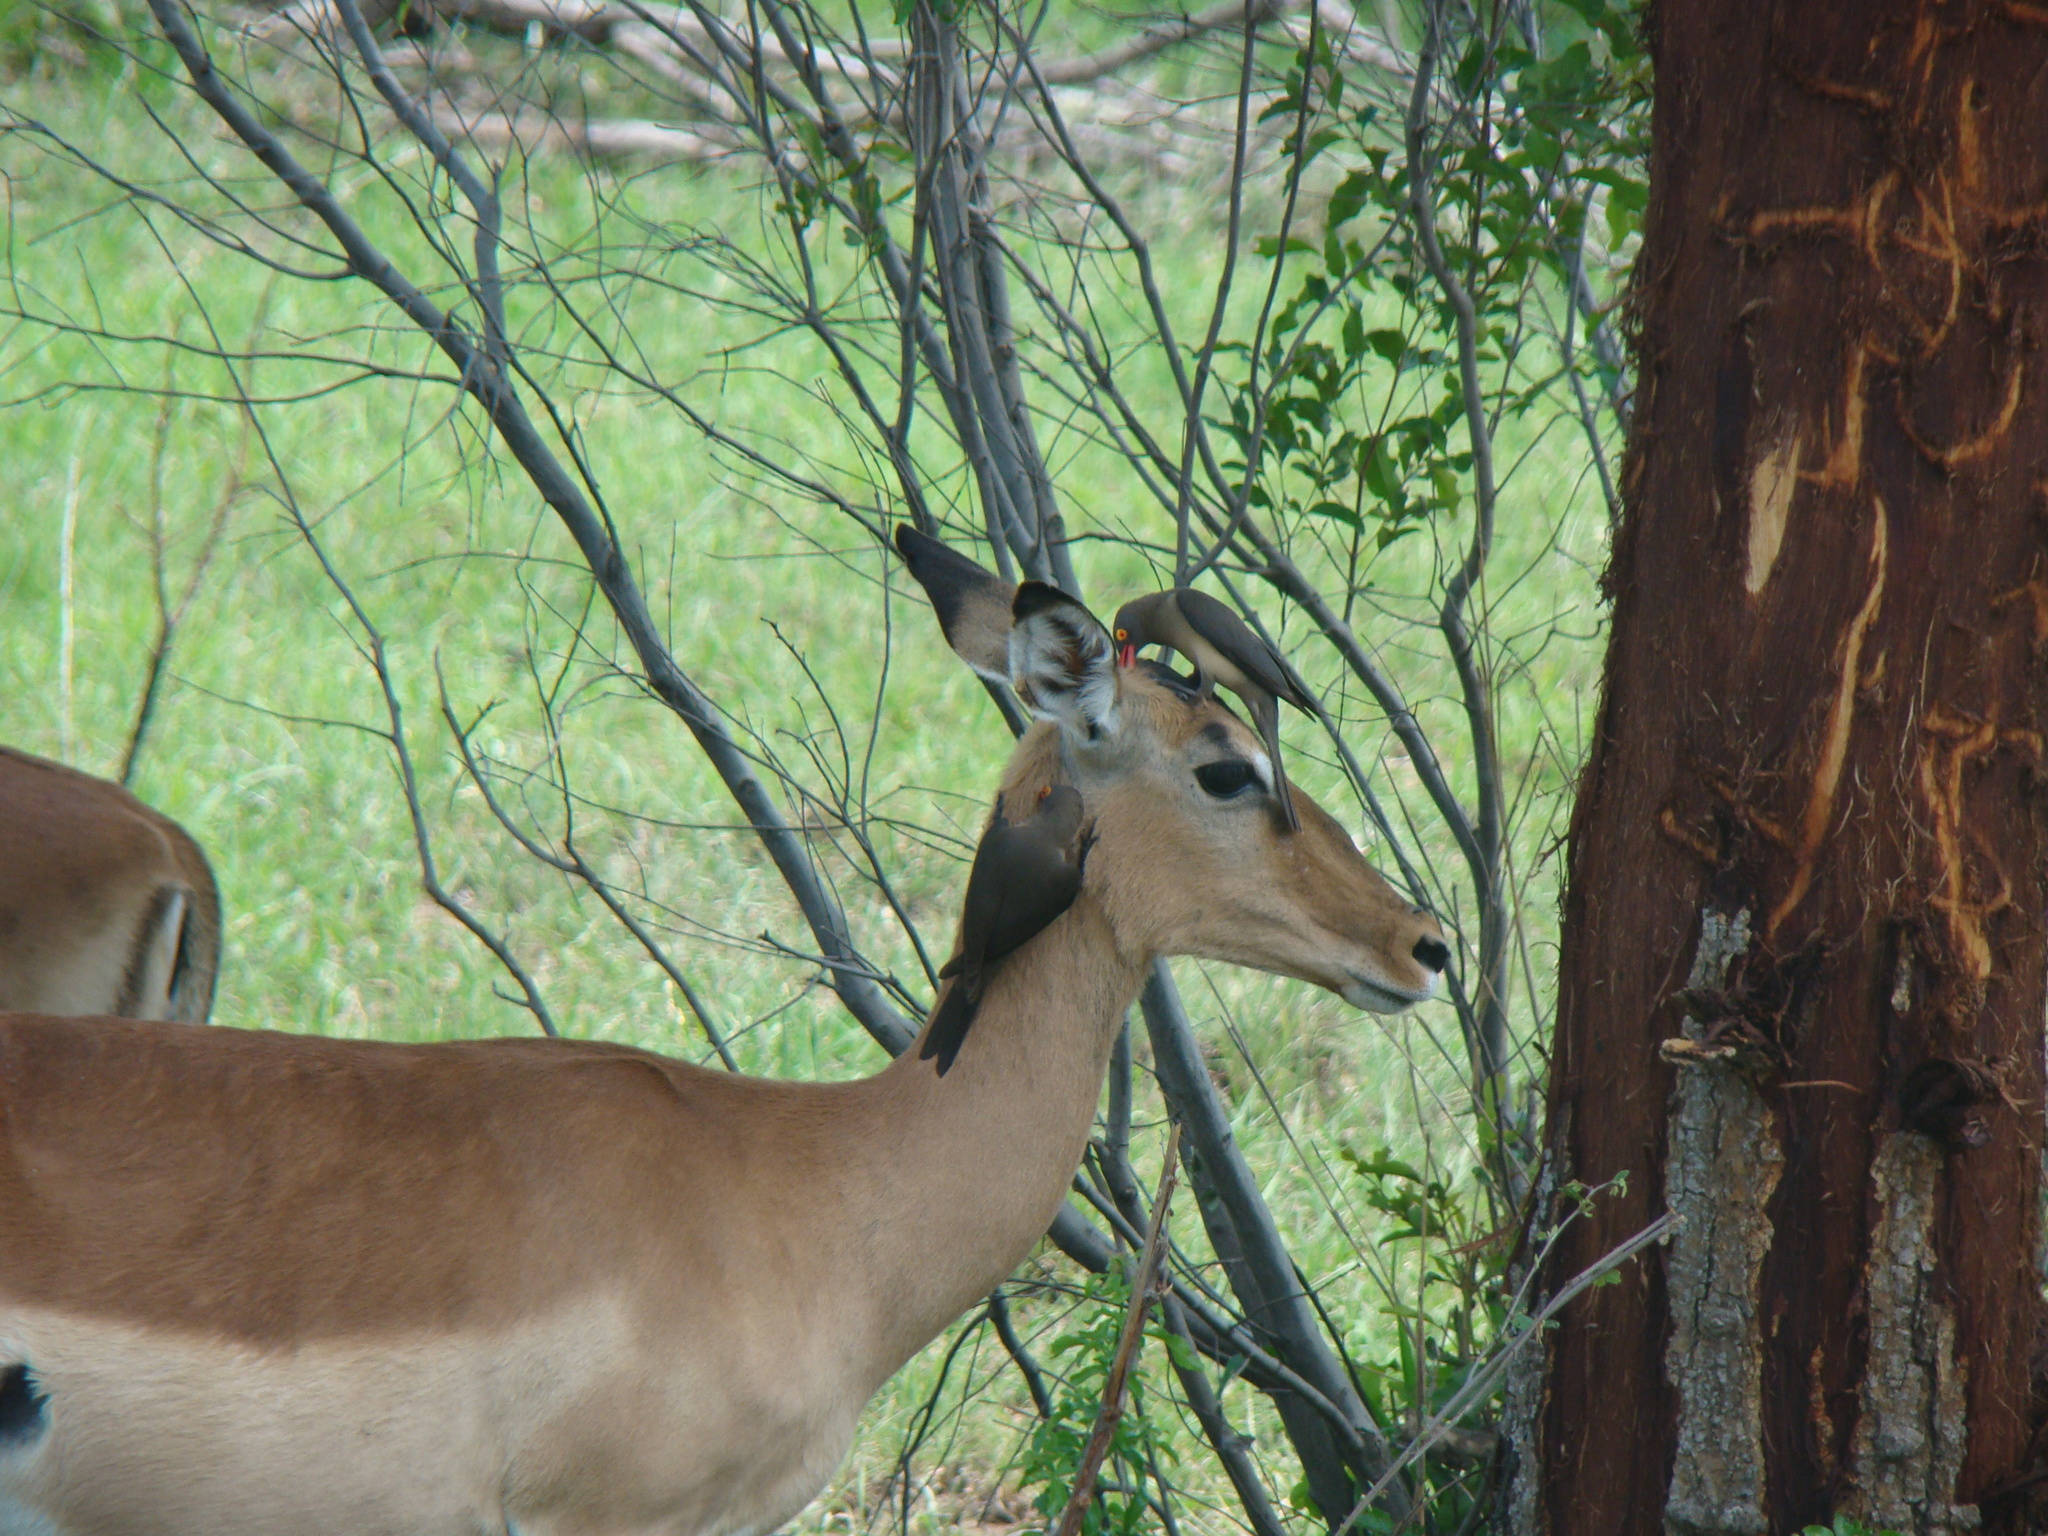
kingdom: Animalia
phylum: Chordata
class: Mammalia
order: Artiodactyla
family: Bovidae
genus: Aepyceros
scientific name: Aepyceros melampus
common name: Impala
